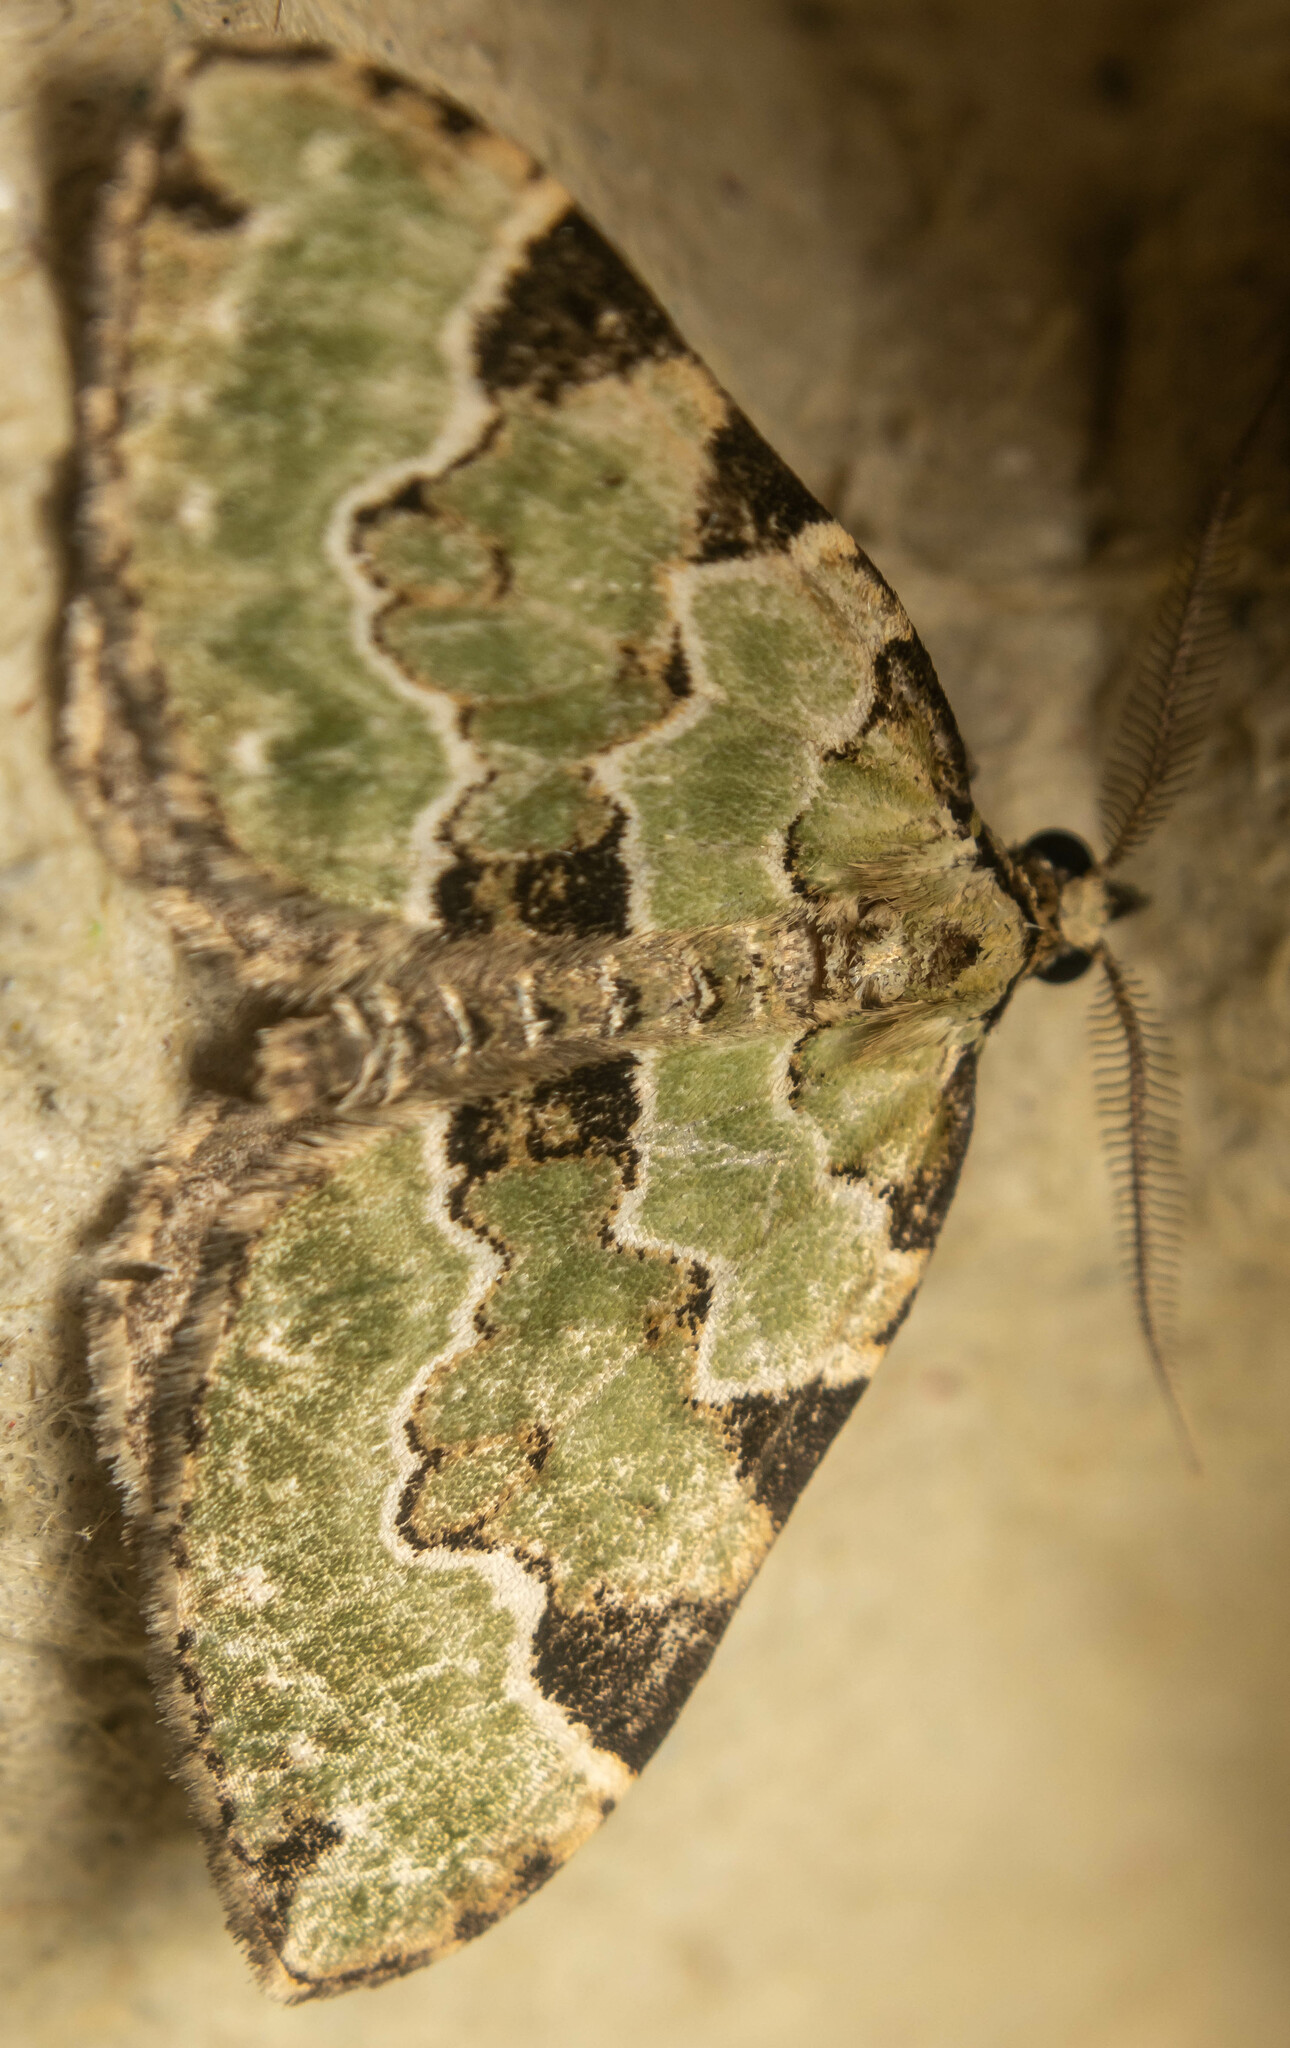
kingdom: Animalia
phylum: Arthropoda
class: Insecta
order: Lepidoptera
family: Geometridae
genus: Colostygia
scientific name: Colostygia pectinataria
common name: Green carpet
